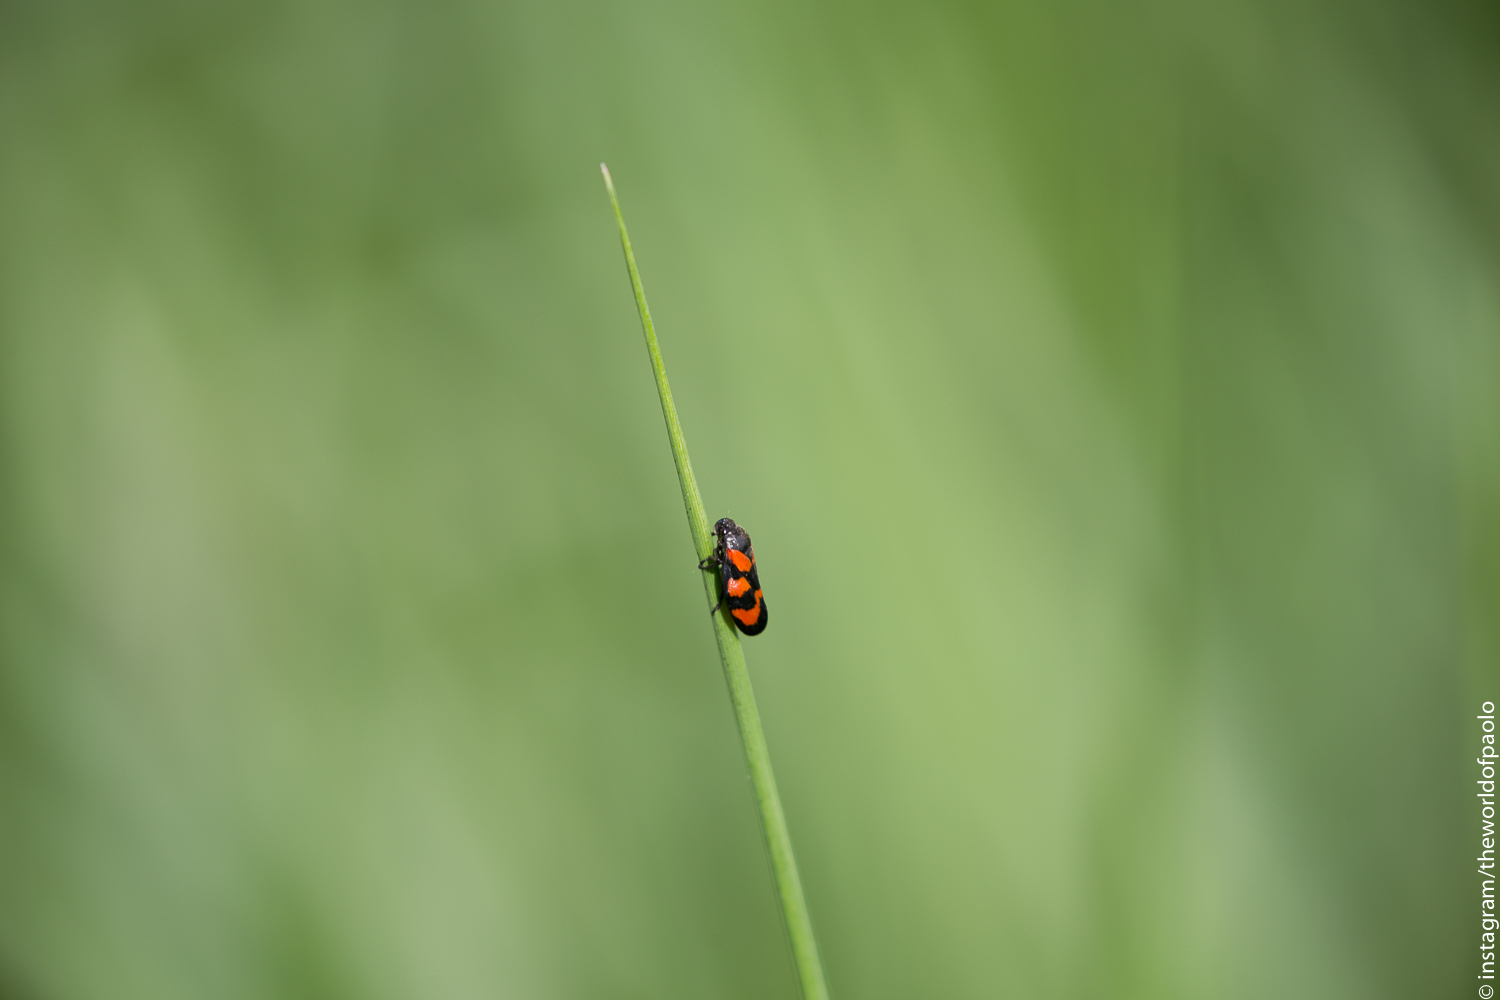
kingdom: Animalia
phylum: Arthropoda
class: Insecta
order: Hemiptera
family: Cercopidae
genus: Cercopis
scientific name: Cercopis vulnerata
